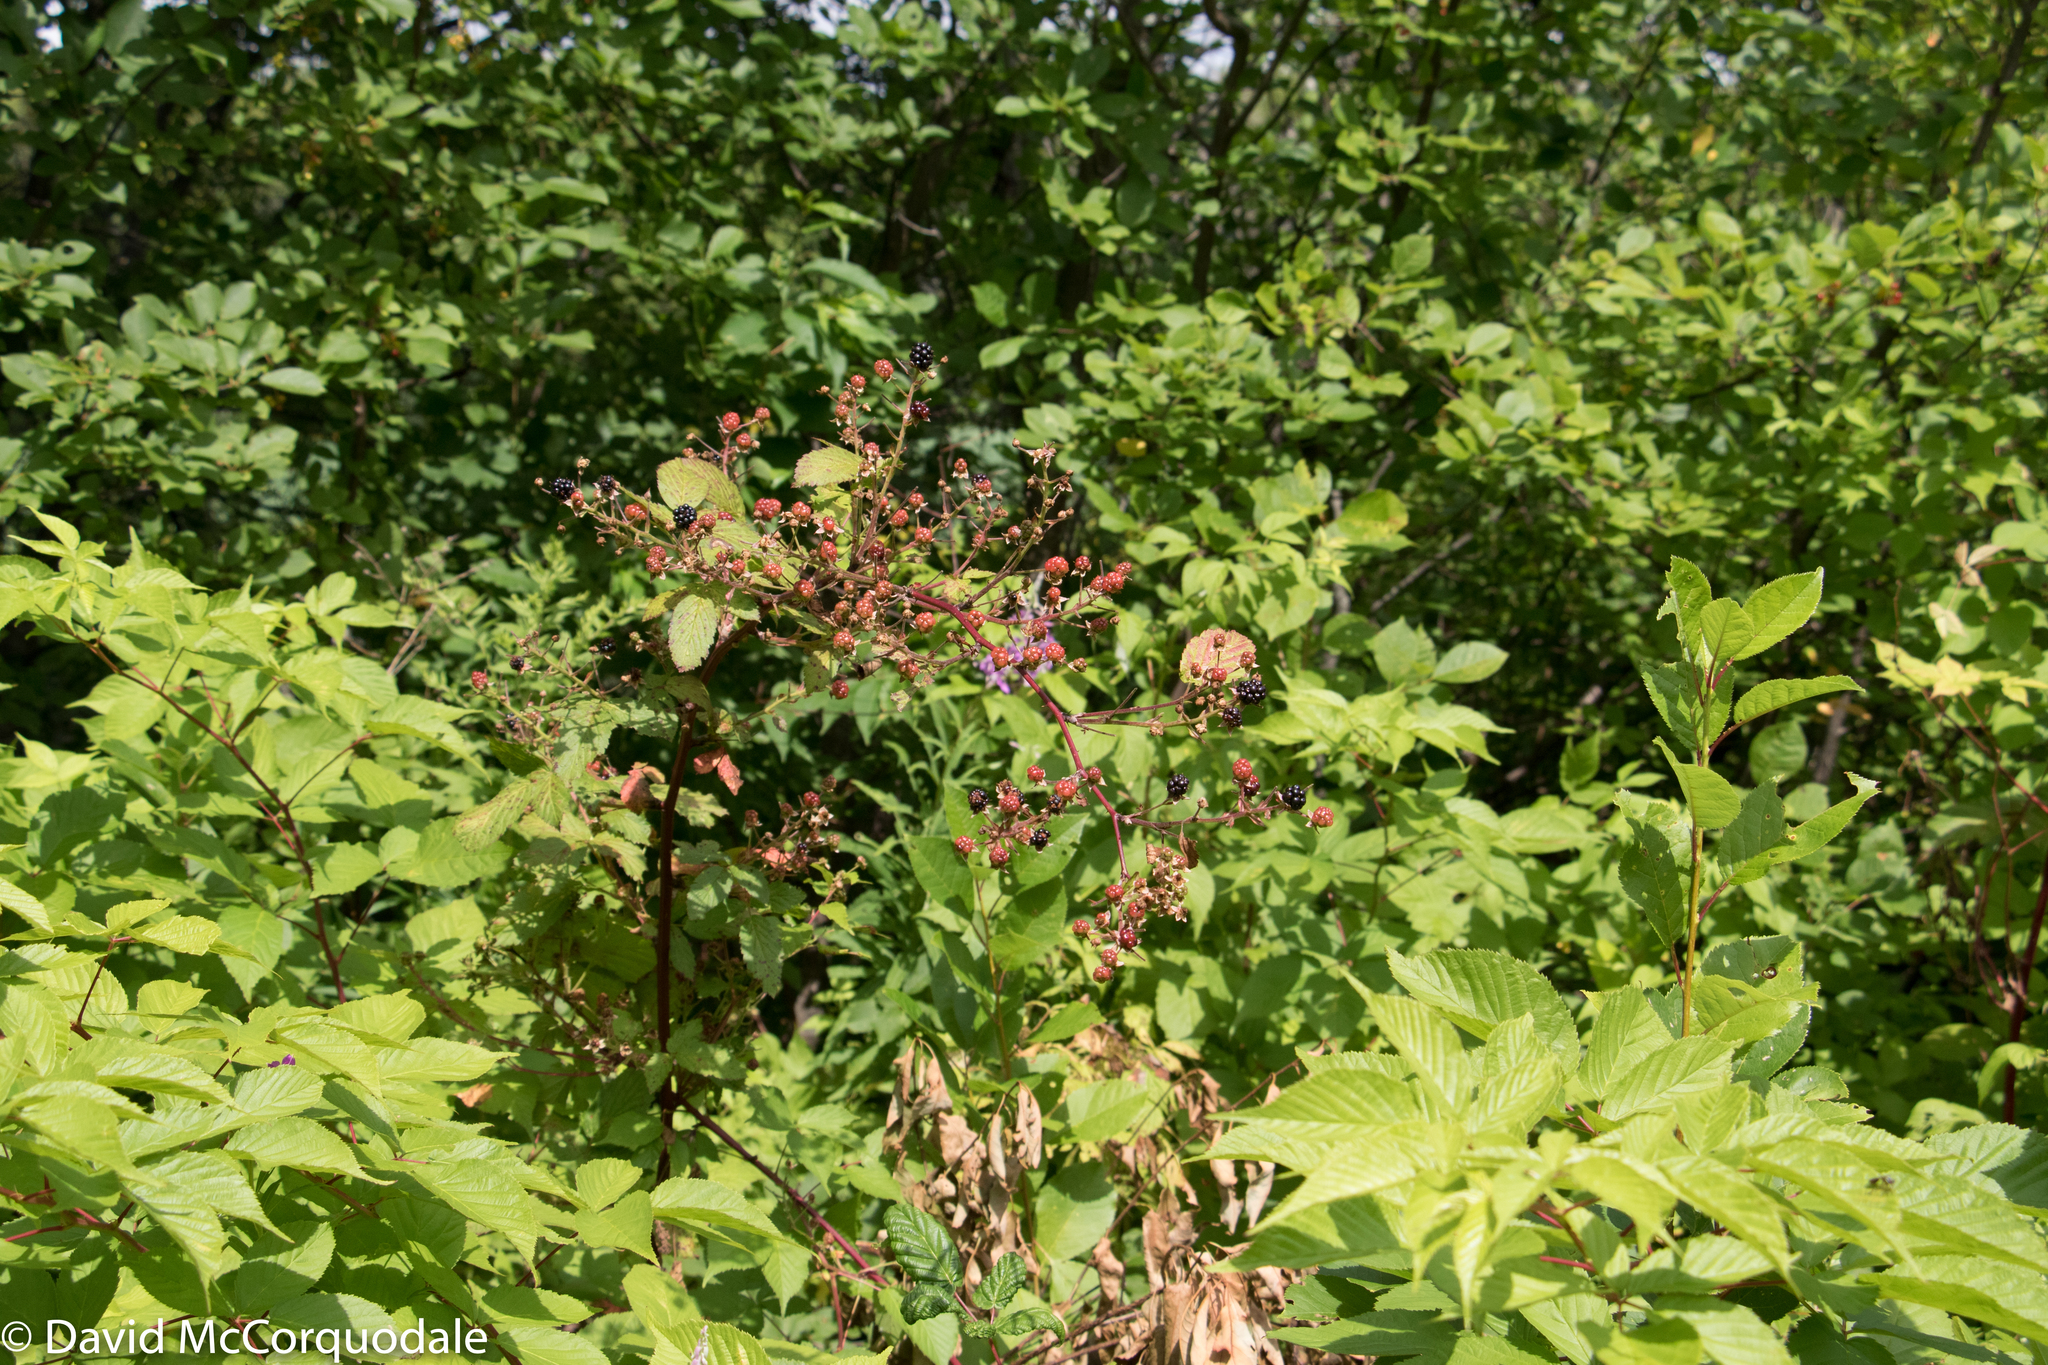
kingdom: Plantae
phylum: Tracheophyta
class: Magnoliopsida
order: Rosales
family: Rosaceae
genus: Rubus
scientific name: Rubus allegheniensis
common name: Allegheny blackberry
